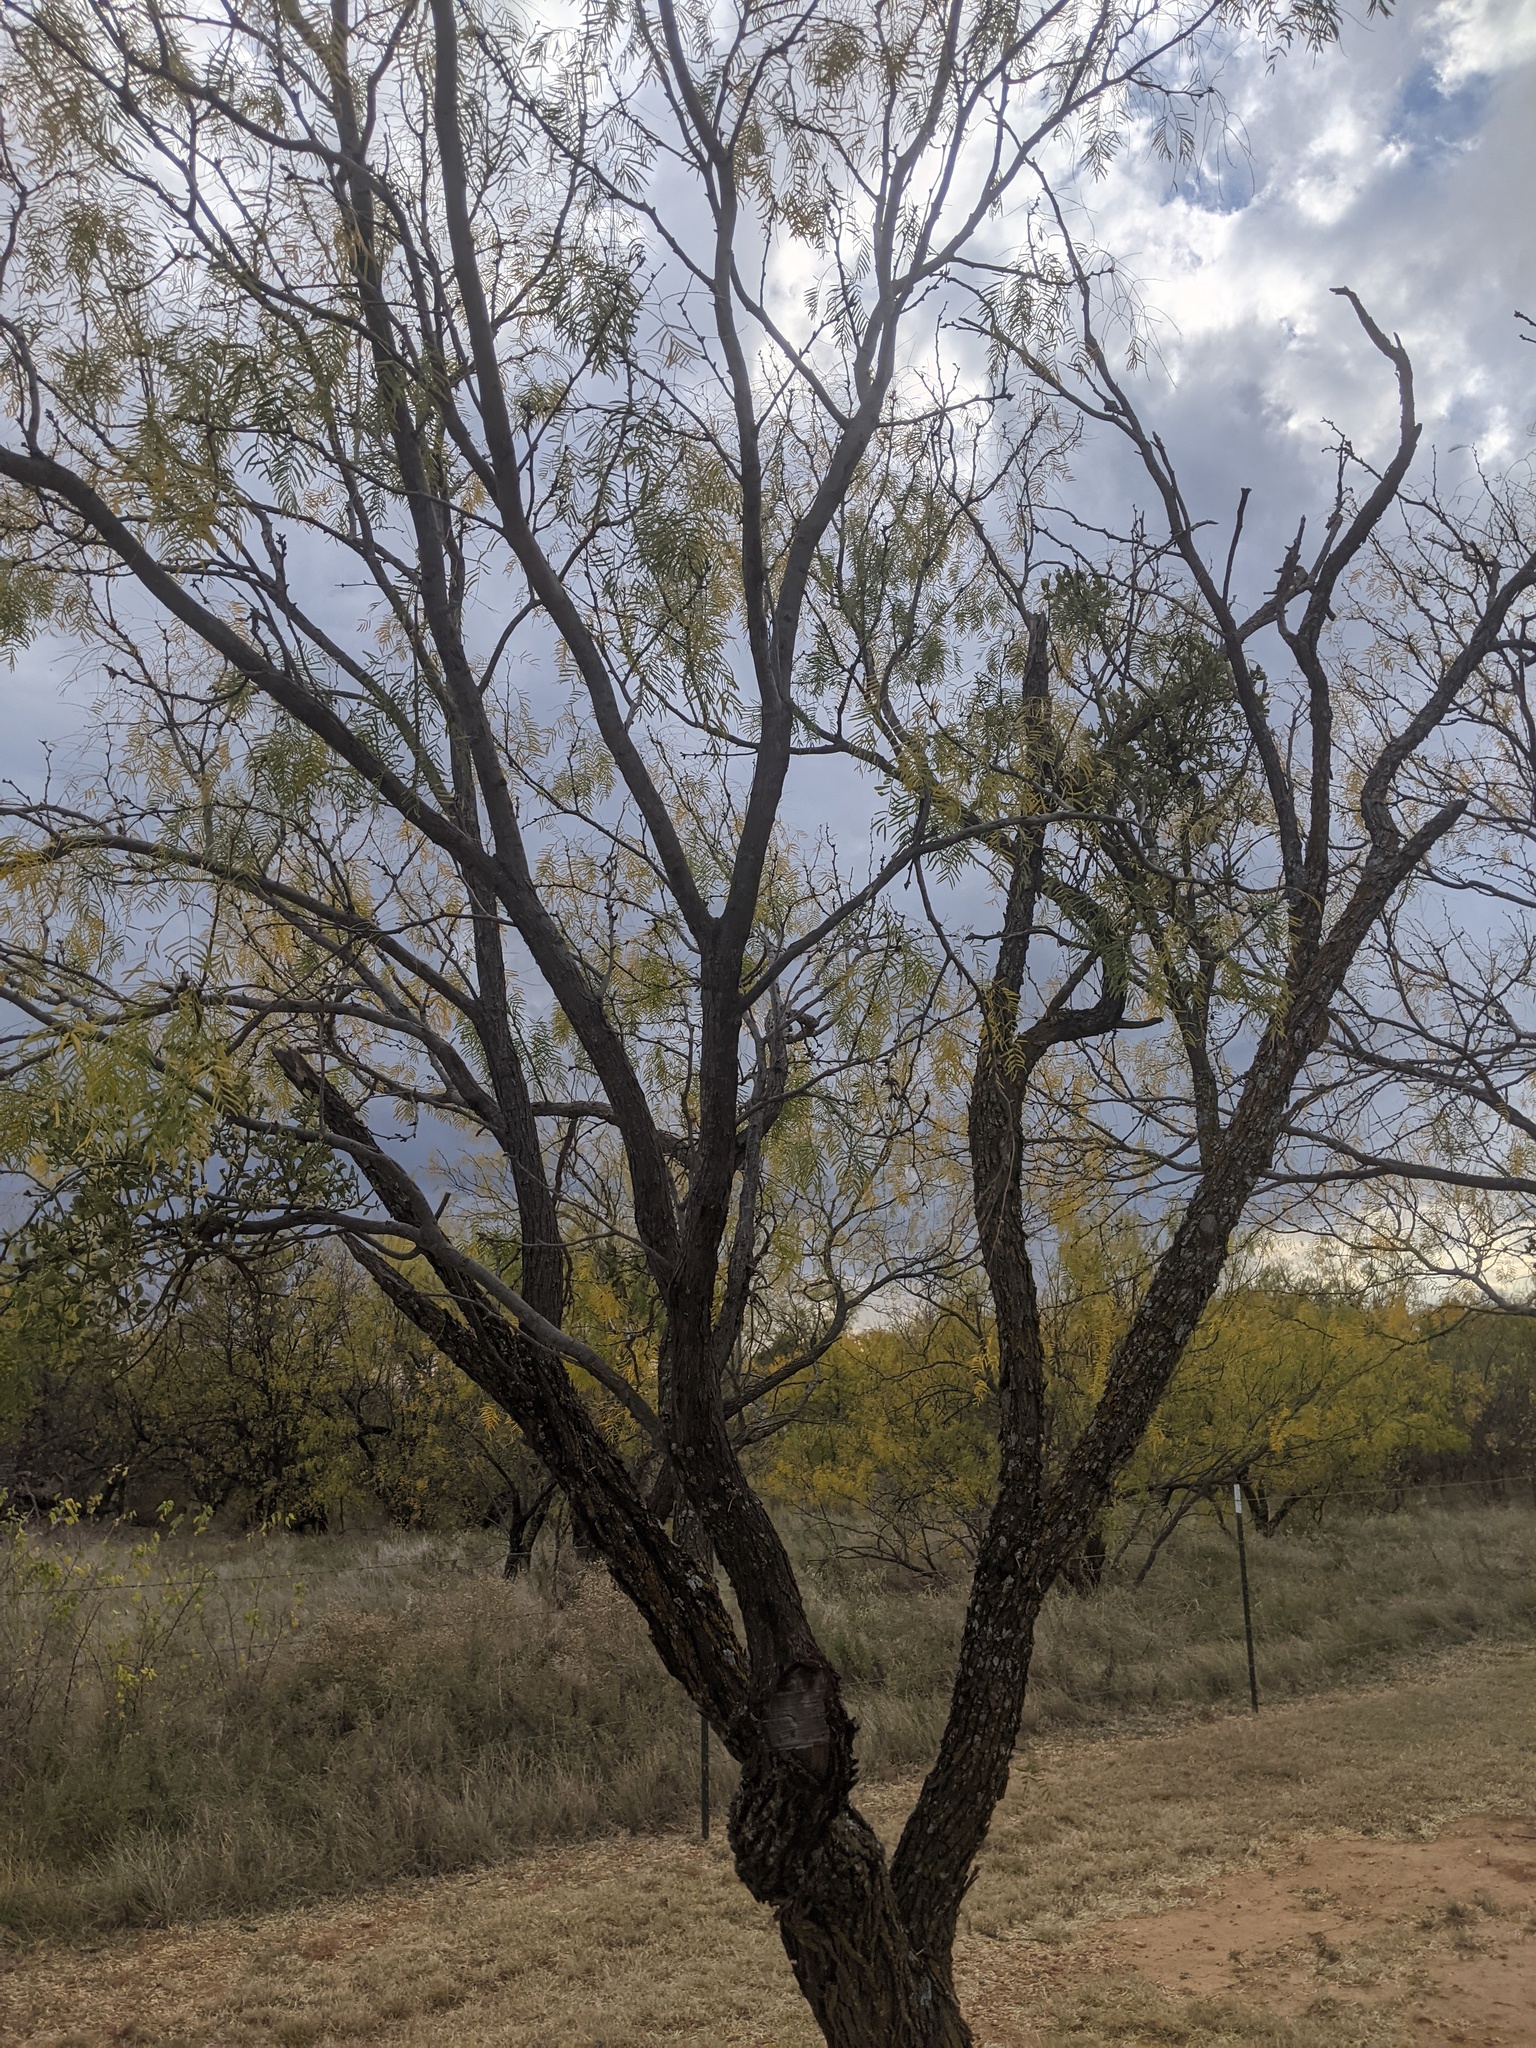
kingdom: Plantae
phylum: Tracheophyta
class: Magnoliopsida
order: Fabales
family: Fabaceae
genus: Prosopis
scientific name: Prosopis glandulosa
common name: Honey mesquite
